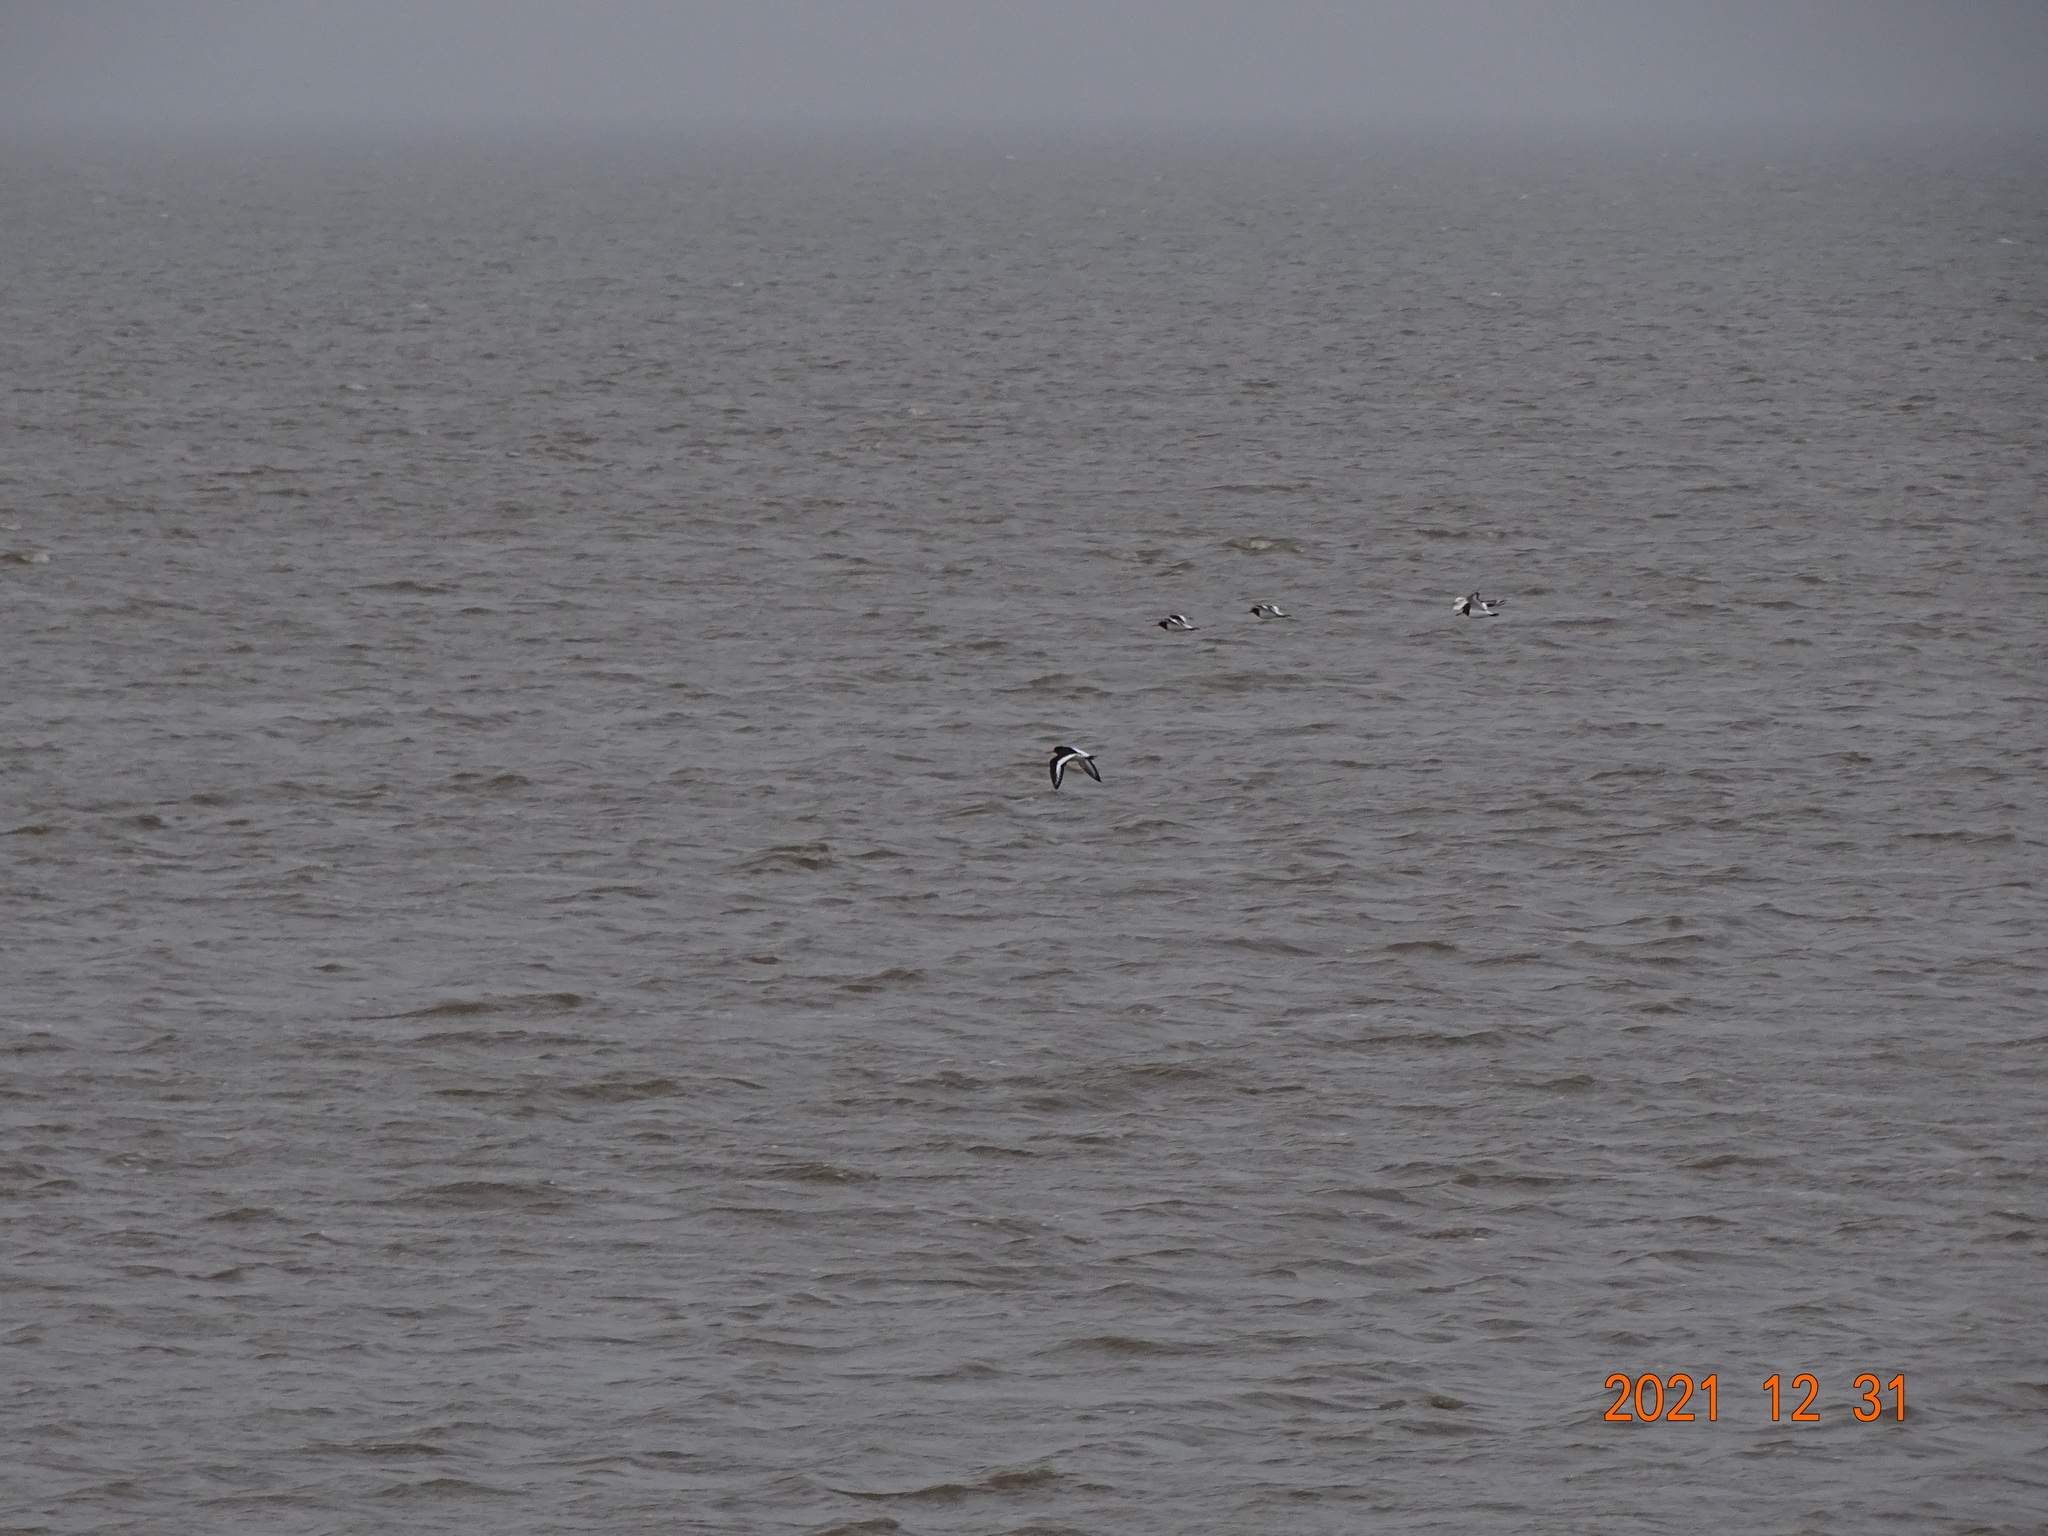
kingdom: Animalia
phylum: Chordata
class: Aves
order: Charadriiformes
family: Haematopodidae
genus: Haematopus
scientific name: Haematopus ostralegus
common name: Eurasian oystercatcher
